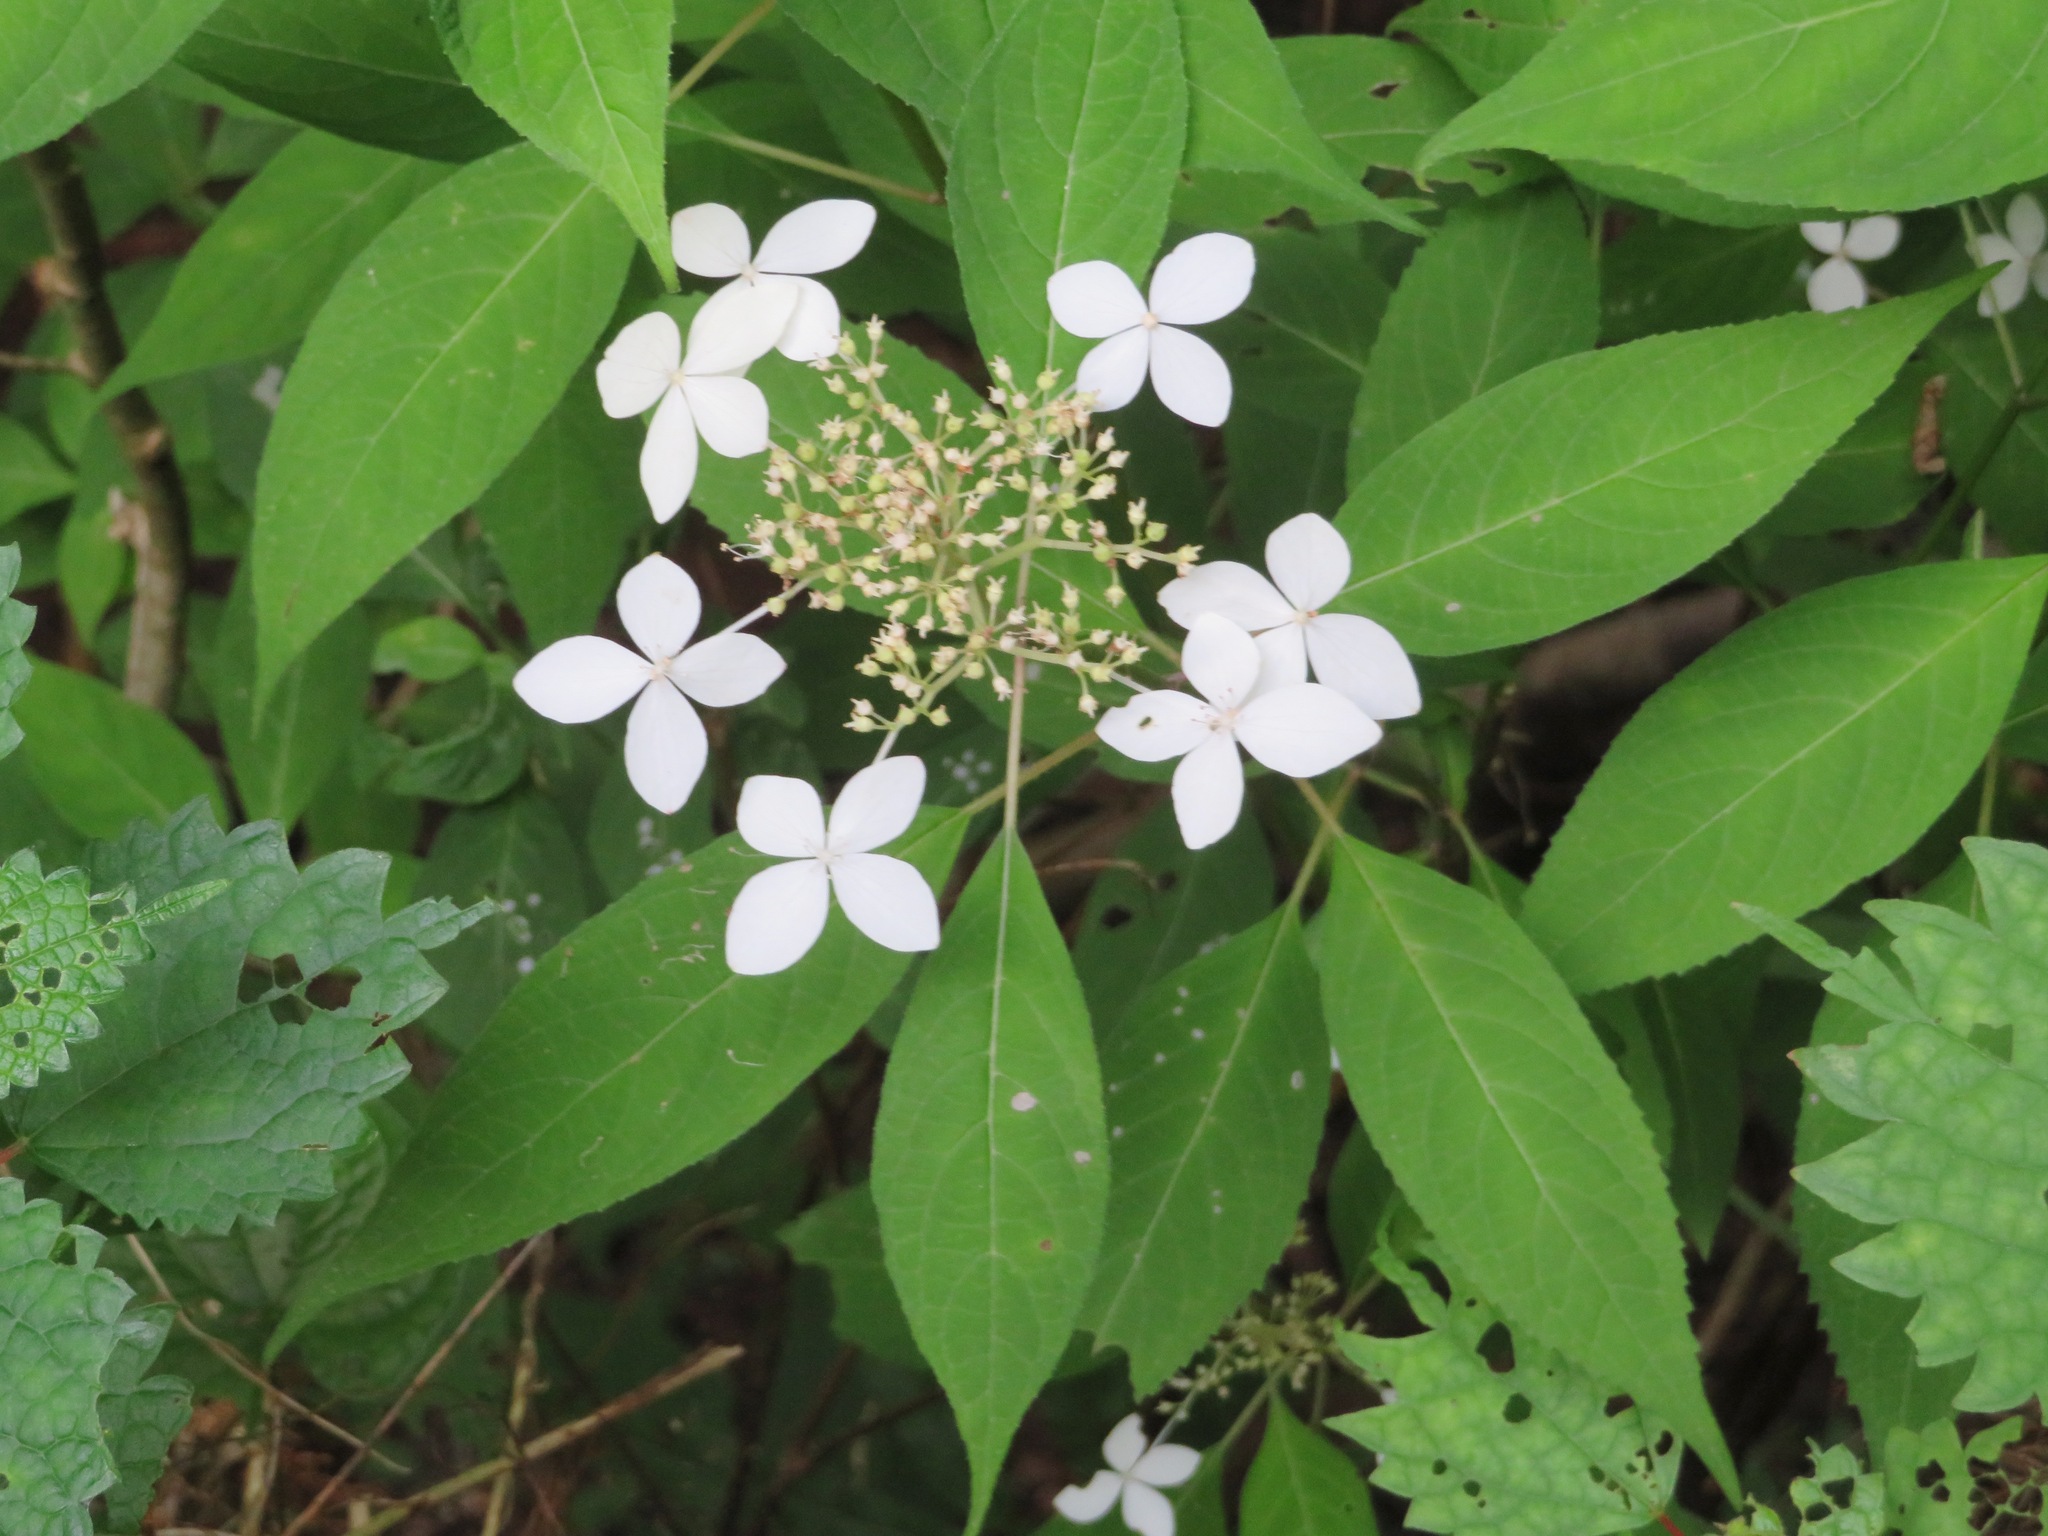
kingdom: Plantae
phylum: Tracheophyta
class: Magnoliopsida
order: Cornales
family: Hydrangeaceae
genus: Hydrangea
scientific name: Hydrangea serrata
